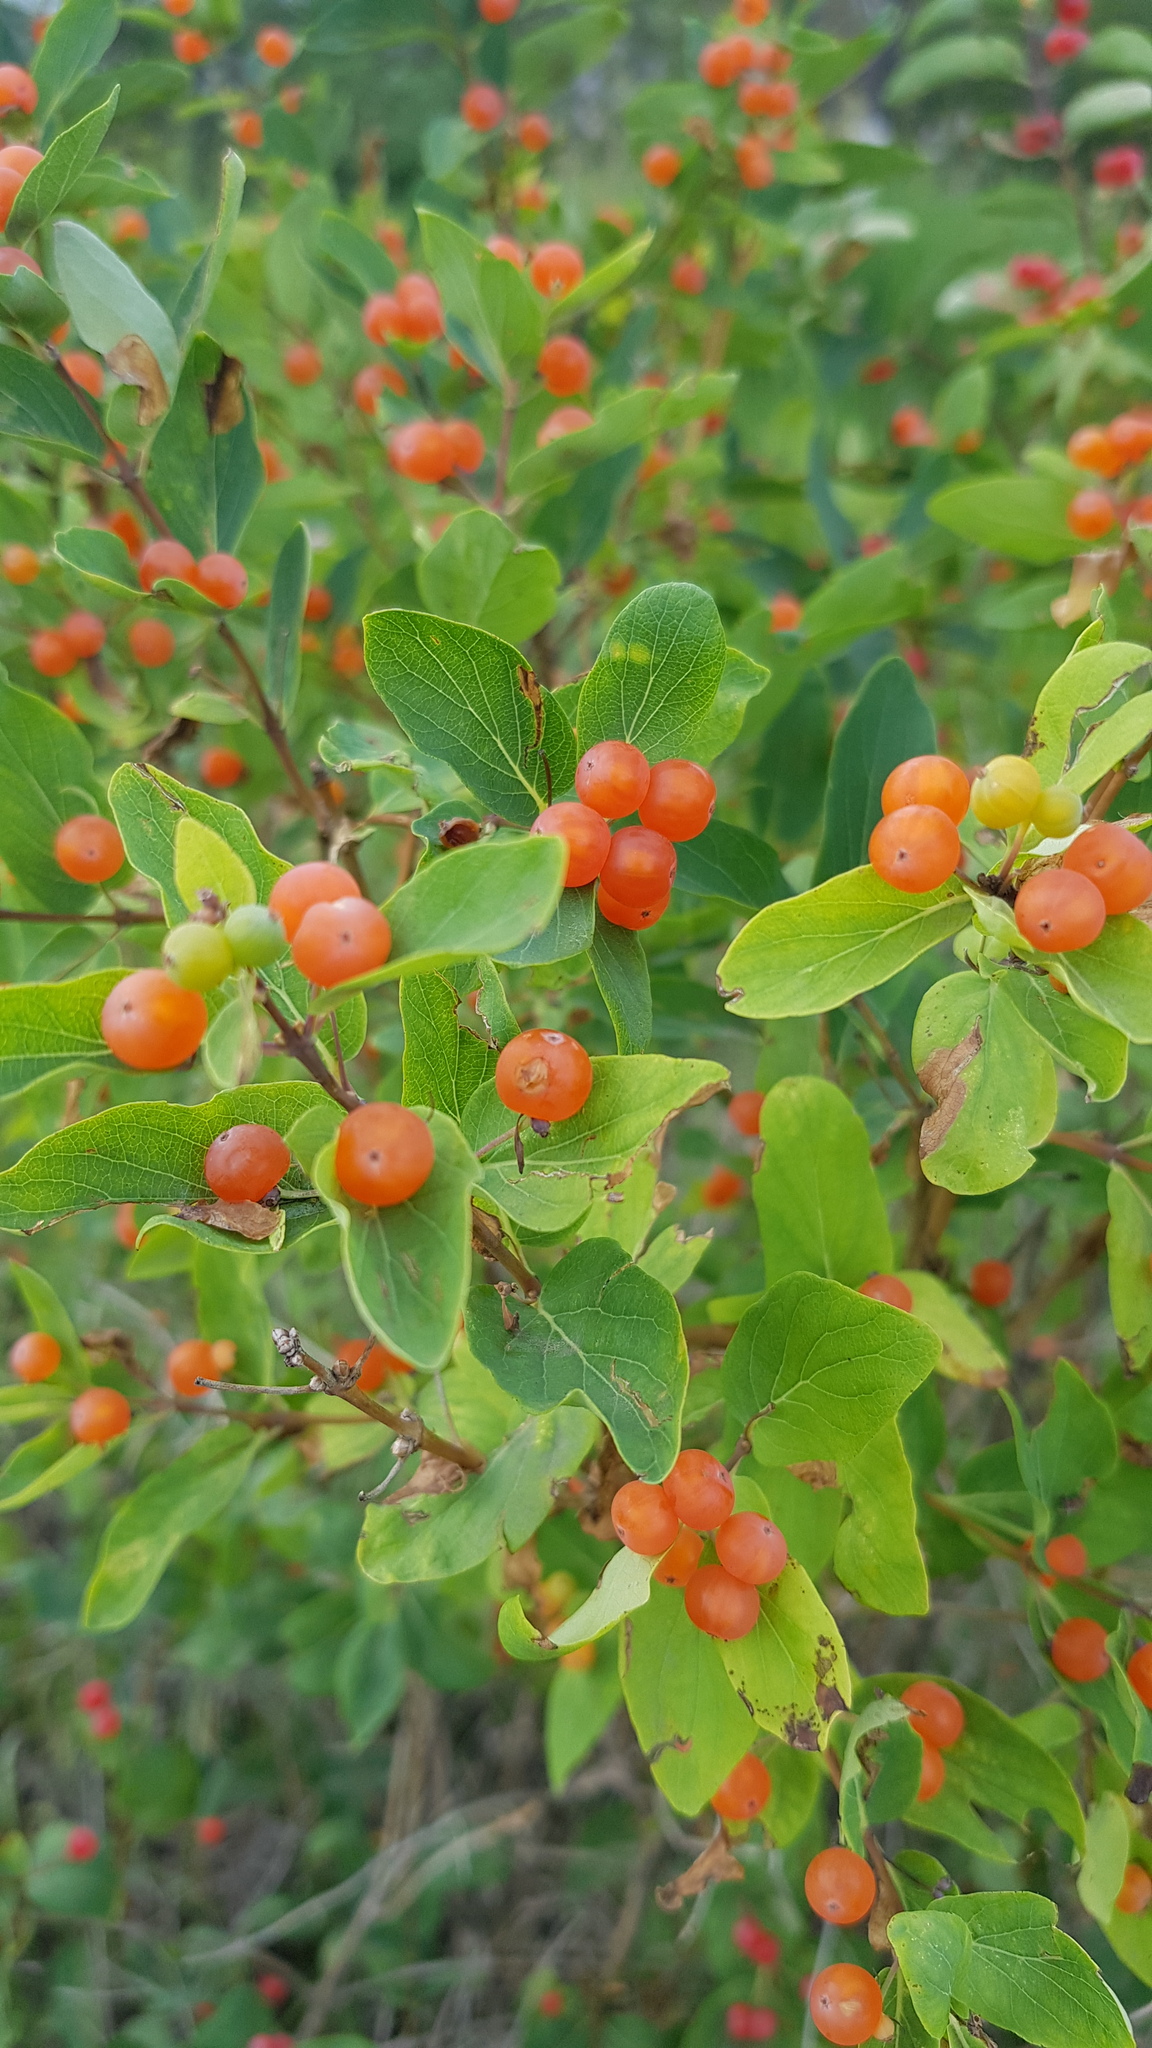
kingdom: Plantae
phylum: Tracheophyta
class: Magnoliopsida
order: Dipsacales
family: Caprifoliaceae
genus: Lonicera
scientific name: Lonicera tatarica
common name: Tatarian honeysuckle
